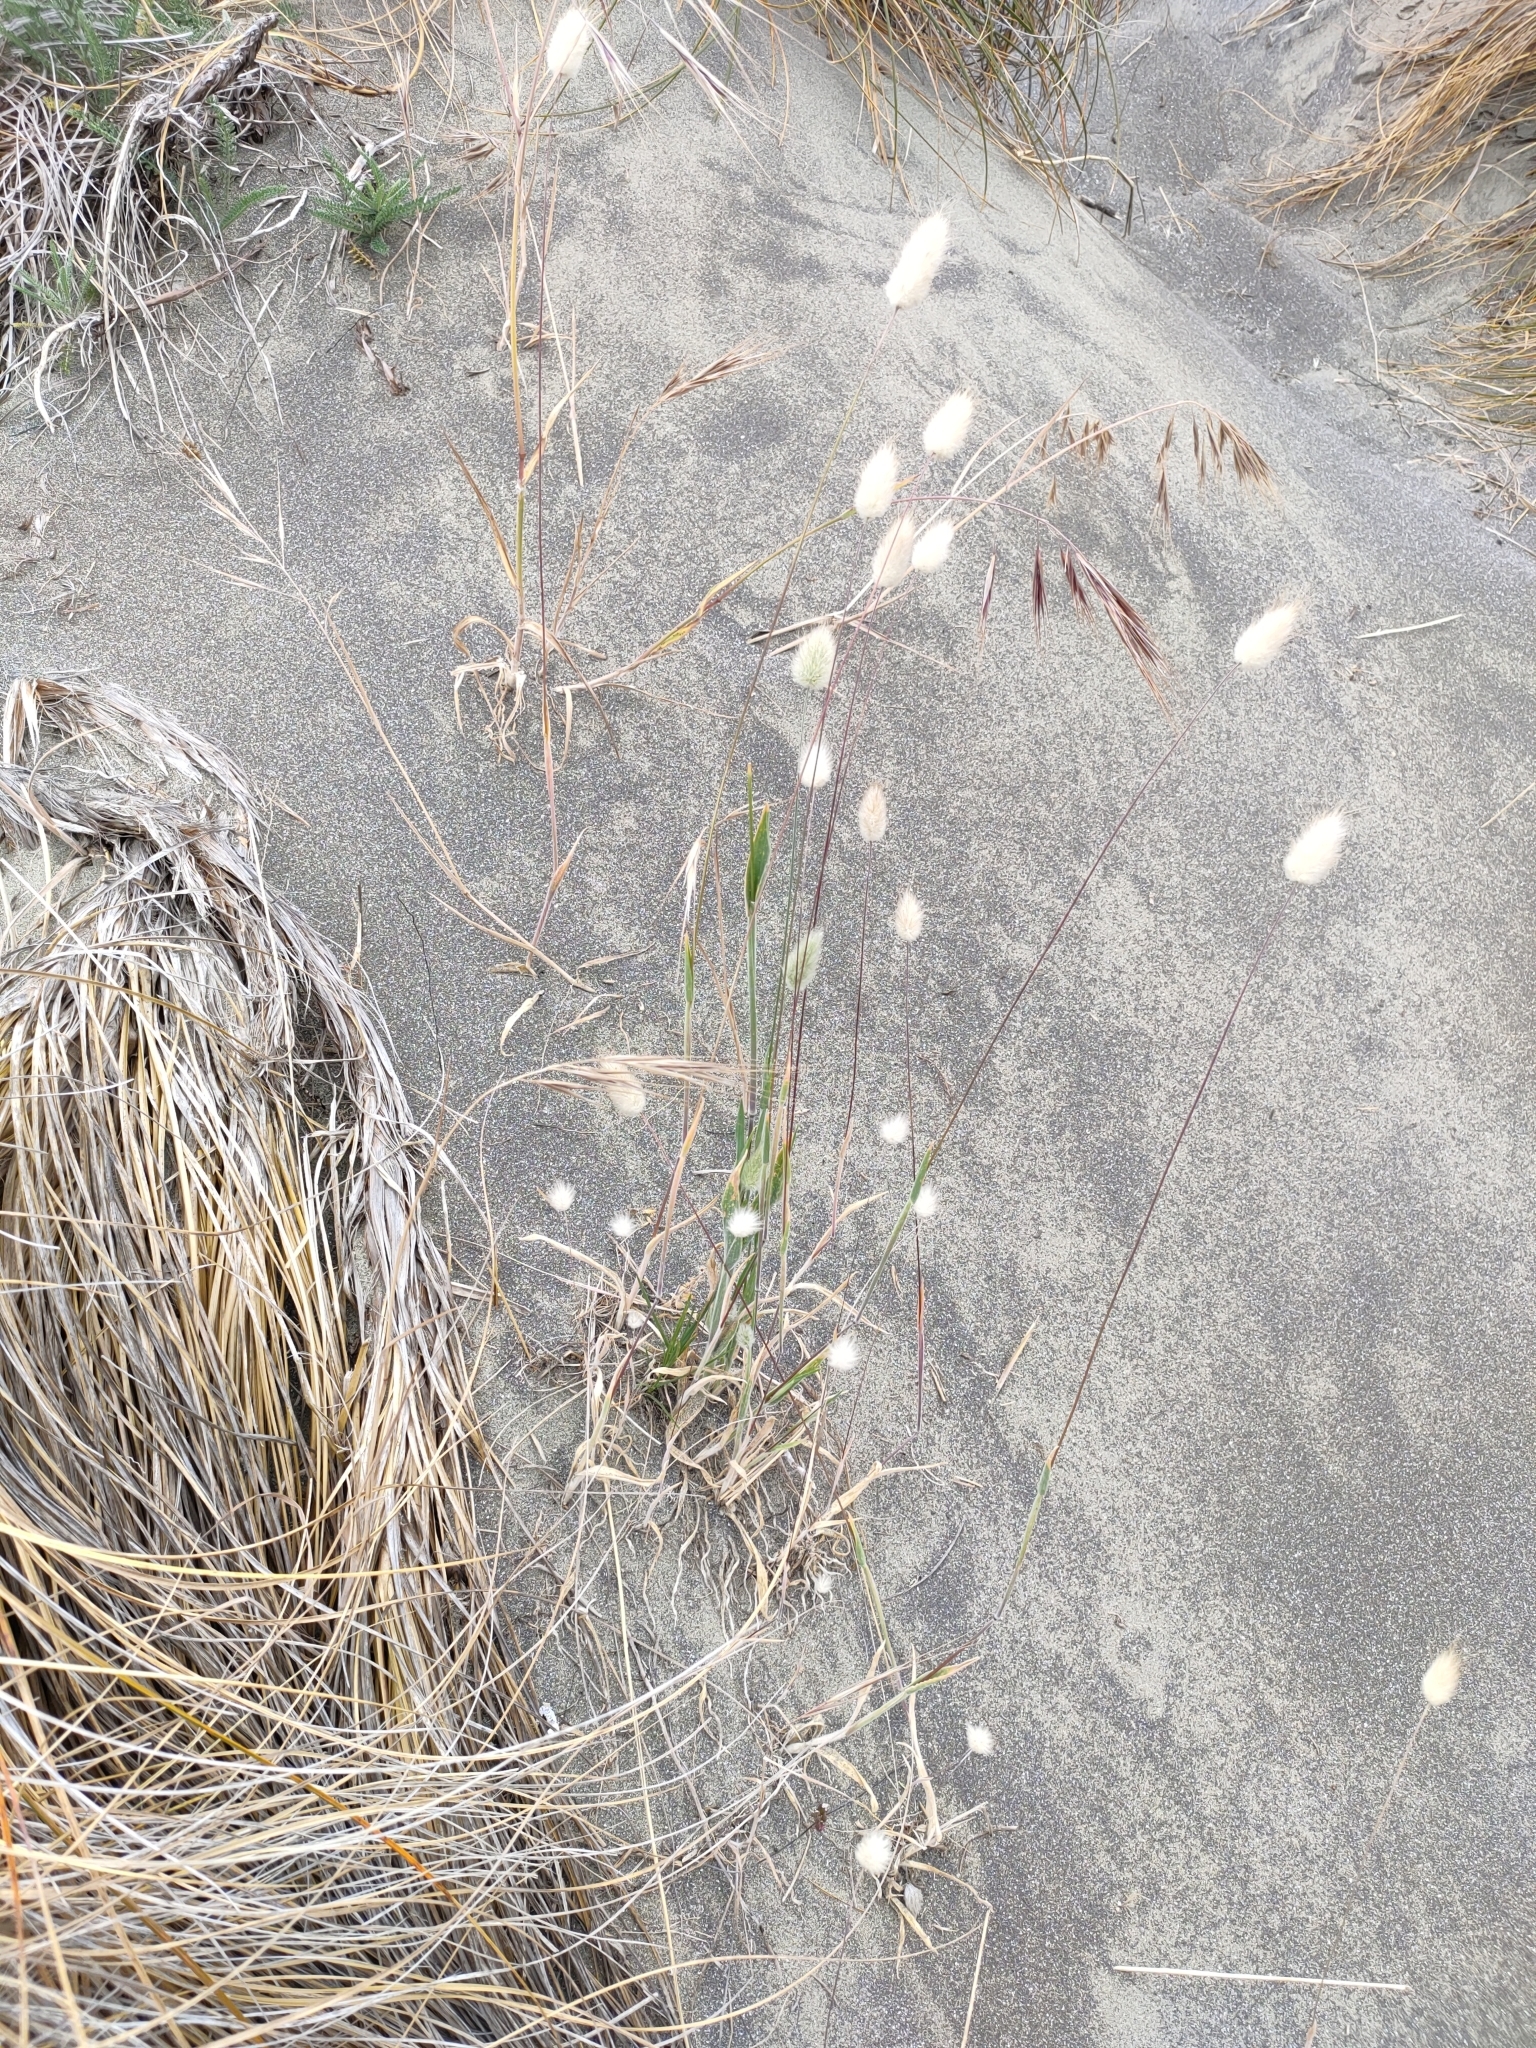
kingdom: Plantae
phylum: Tracheophyta
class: Liliopsida
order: Poales
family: Poaceae
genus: Lagurus
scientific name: Lagurus ovatus
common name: Hare's-tail
